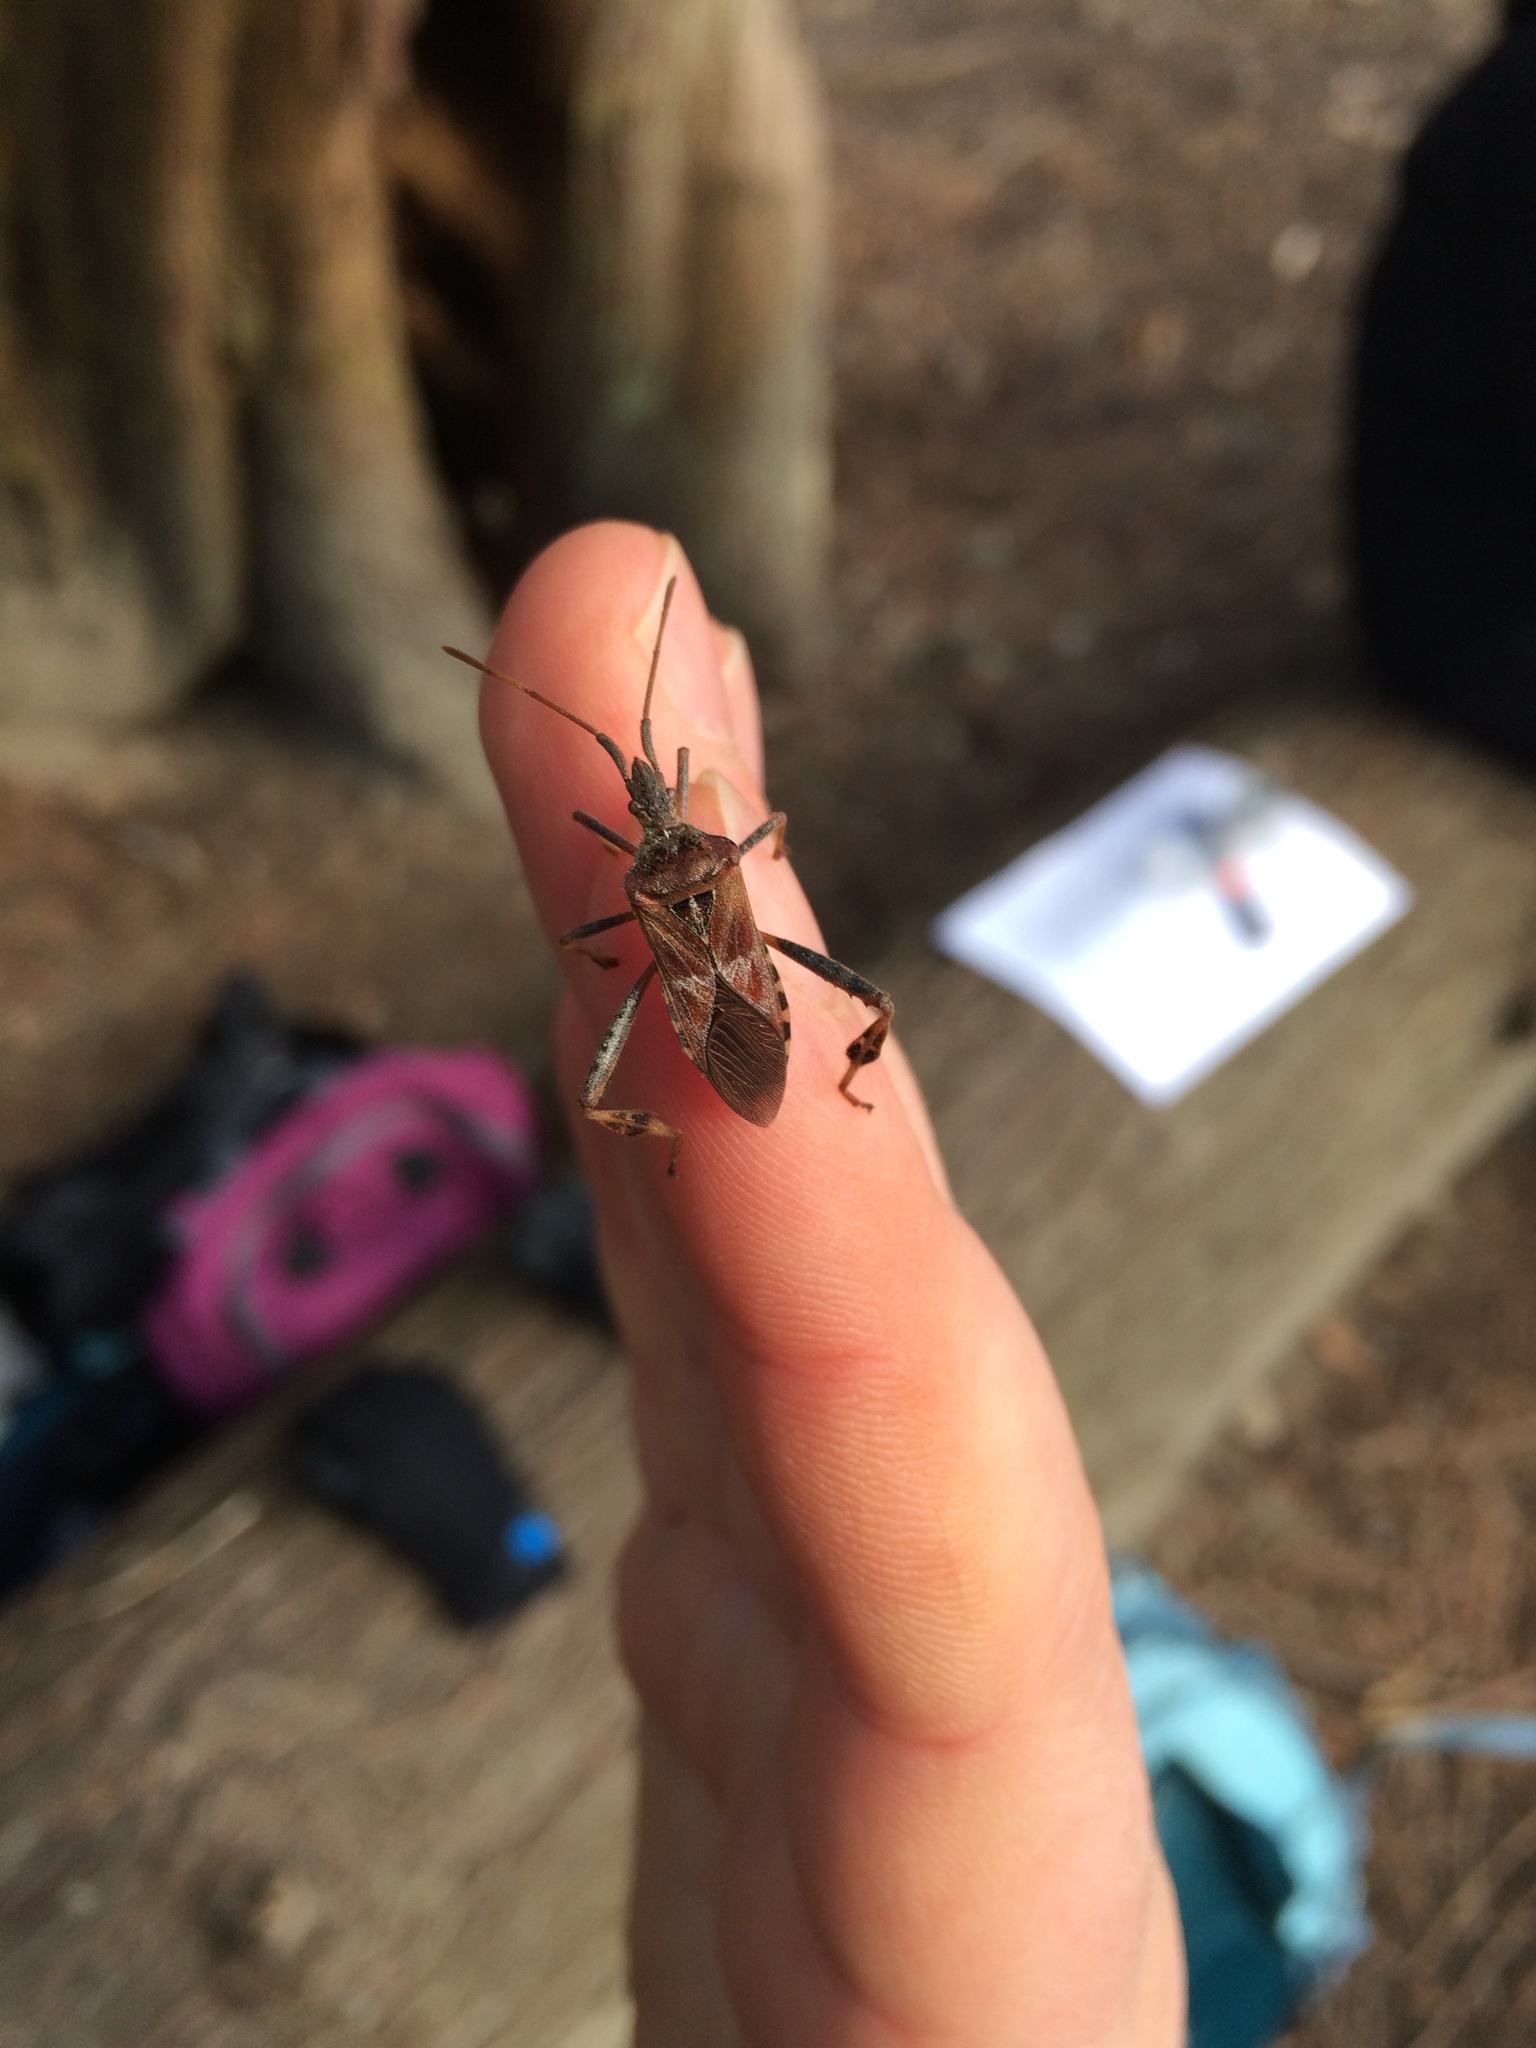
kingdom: Animalia
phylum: Arthropoda
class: Insecta
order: Hemiptera
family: Coreidae
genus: Leptoglossus
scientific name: Leptoglossus occidentalis
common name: Western conifer-seed bug
